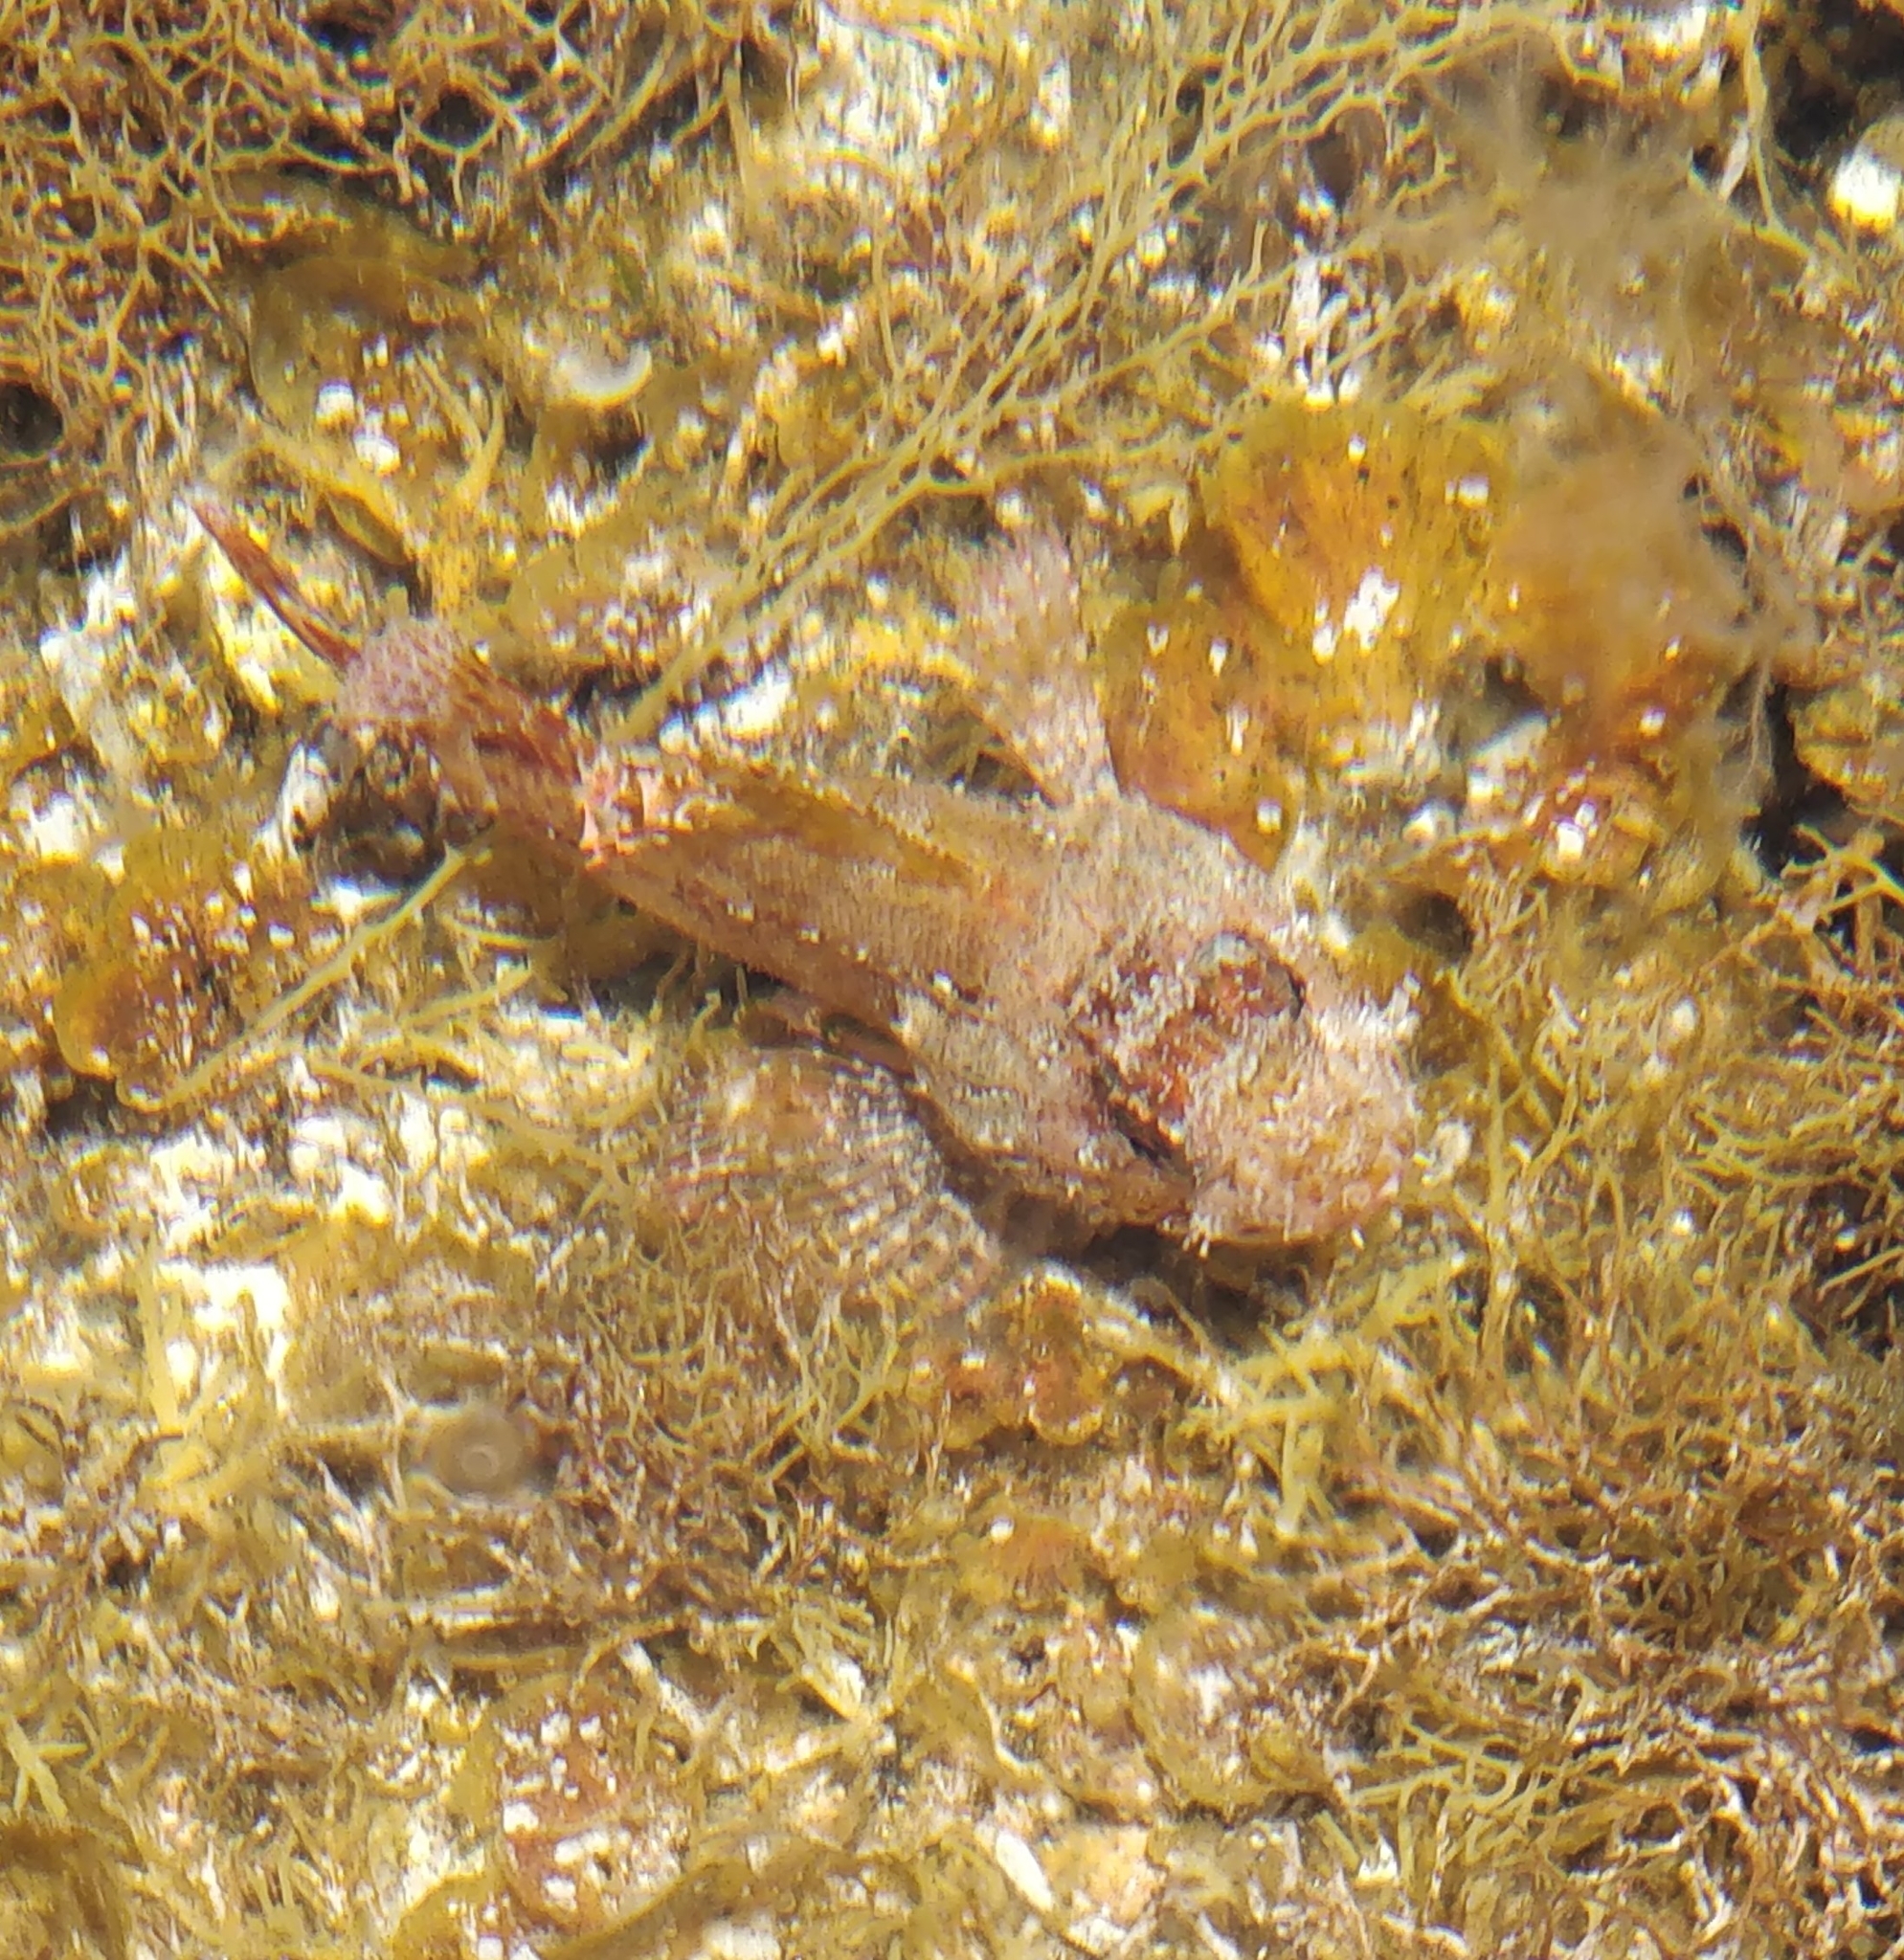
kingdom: Animalia
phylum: Chordata
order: Scorpaeniformes
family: Scorpaenidae
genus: Scorpaena
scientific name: Scorpaena maderensis
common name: Madeira rockfish
